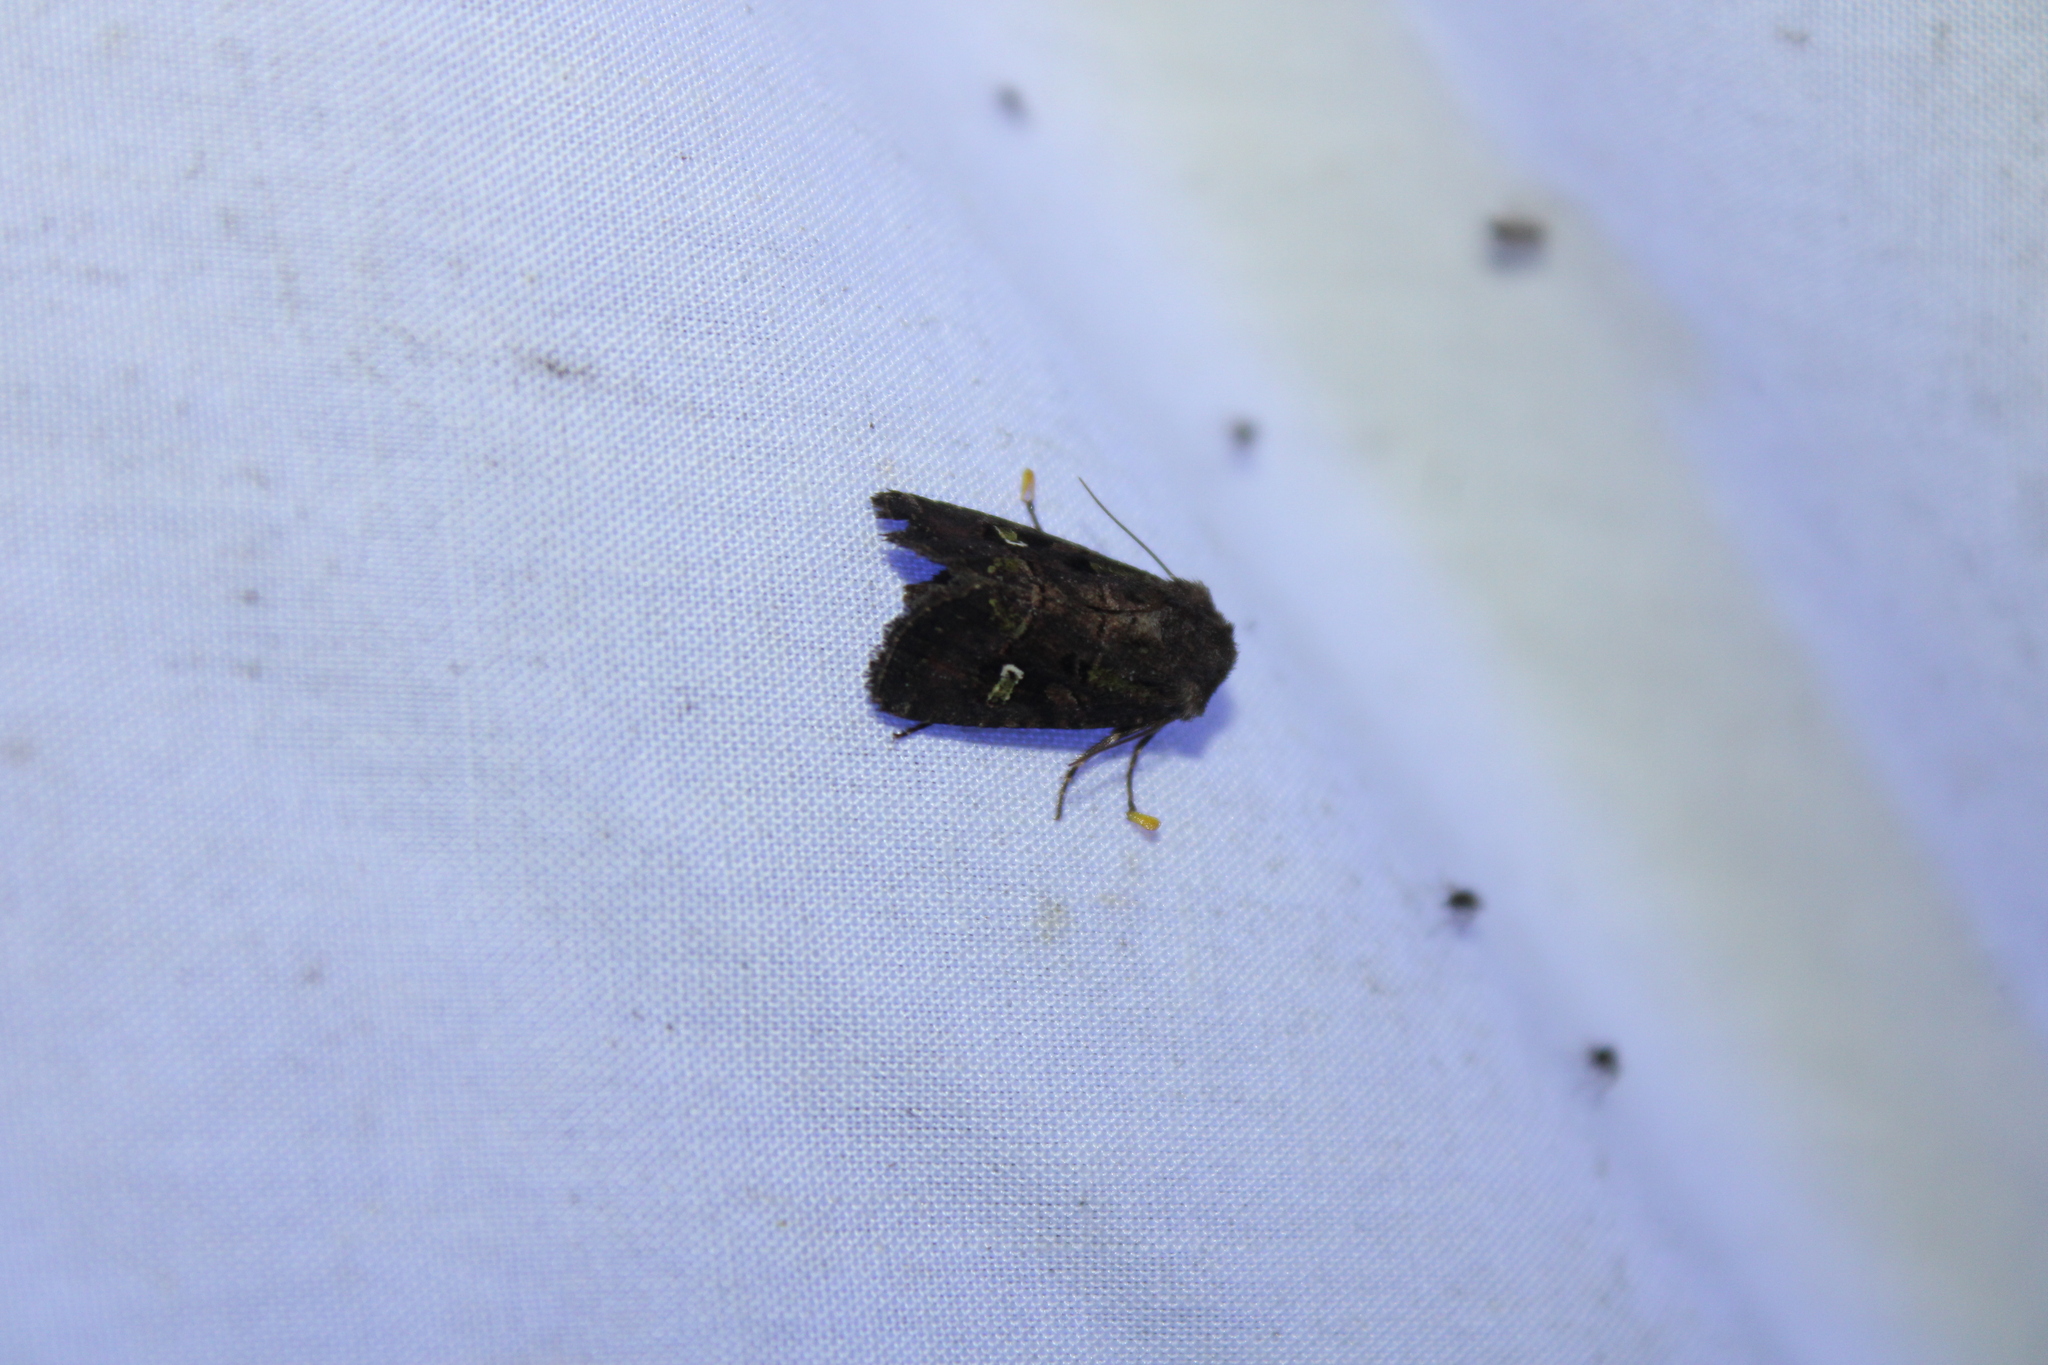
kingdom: Animalia
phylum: Arthropoda
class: Insecta
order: Lepidoptera
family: Noctuidae
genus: Lacinipolia
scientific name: Lacinipolia renigera
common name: Kidney-spotted minor
